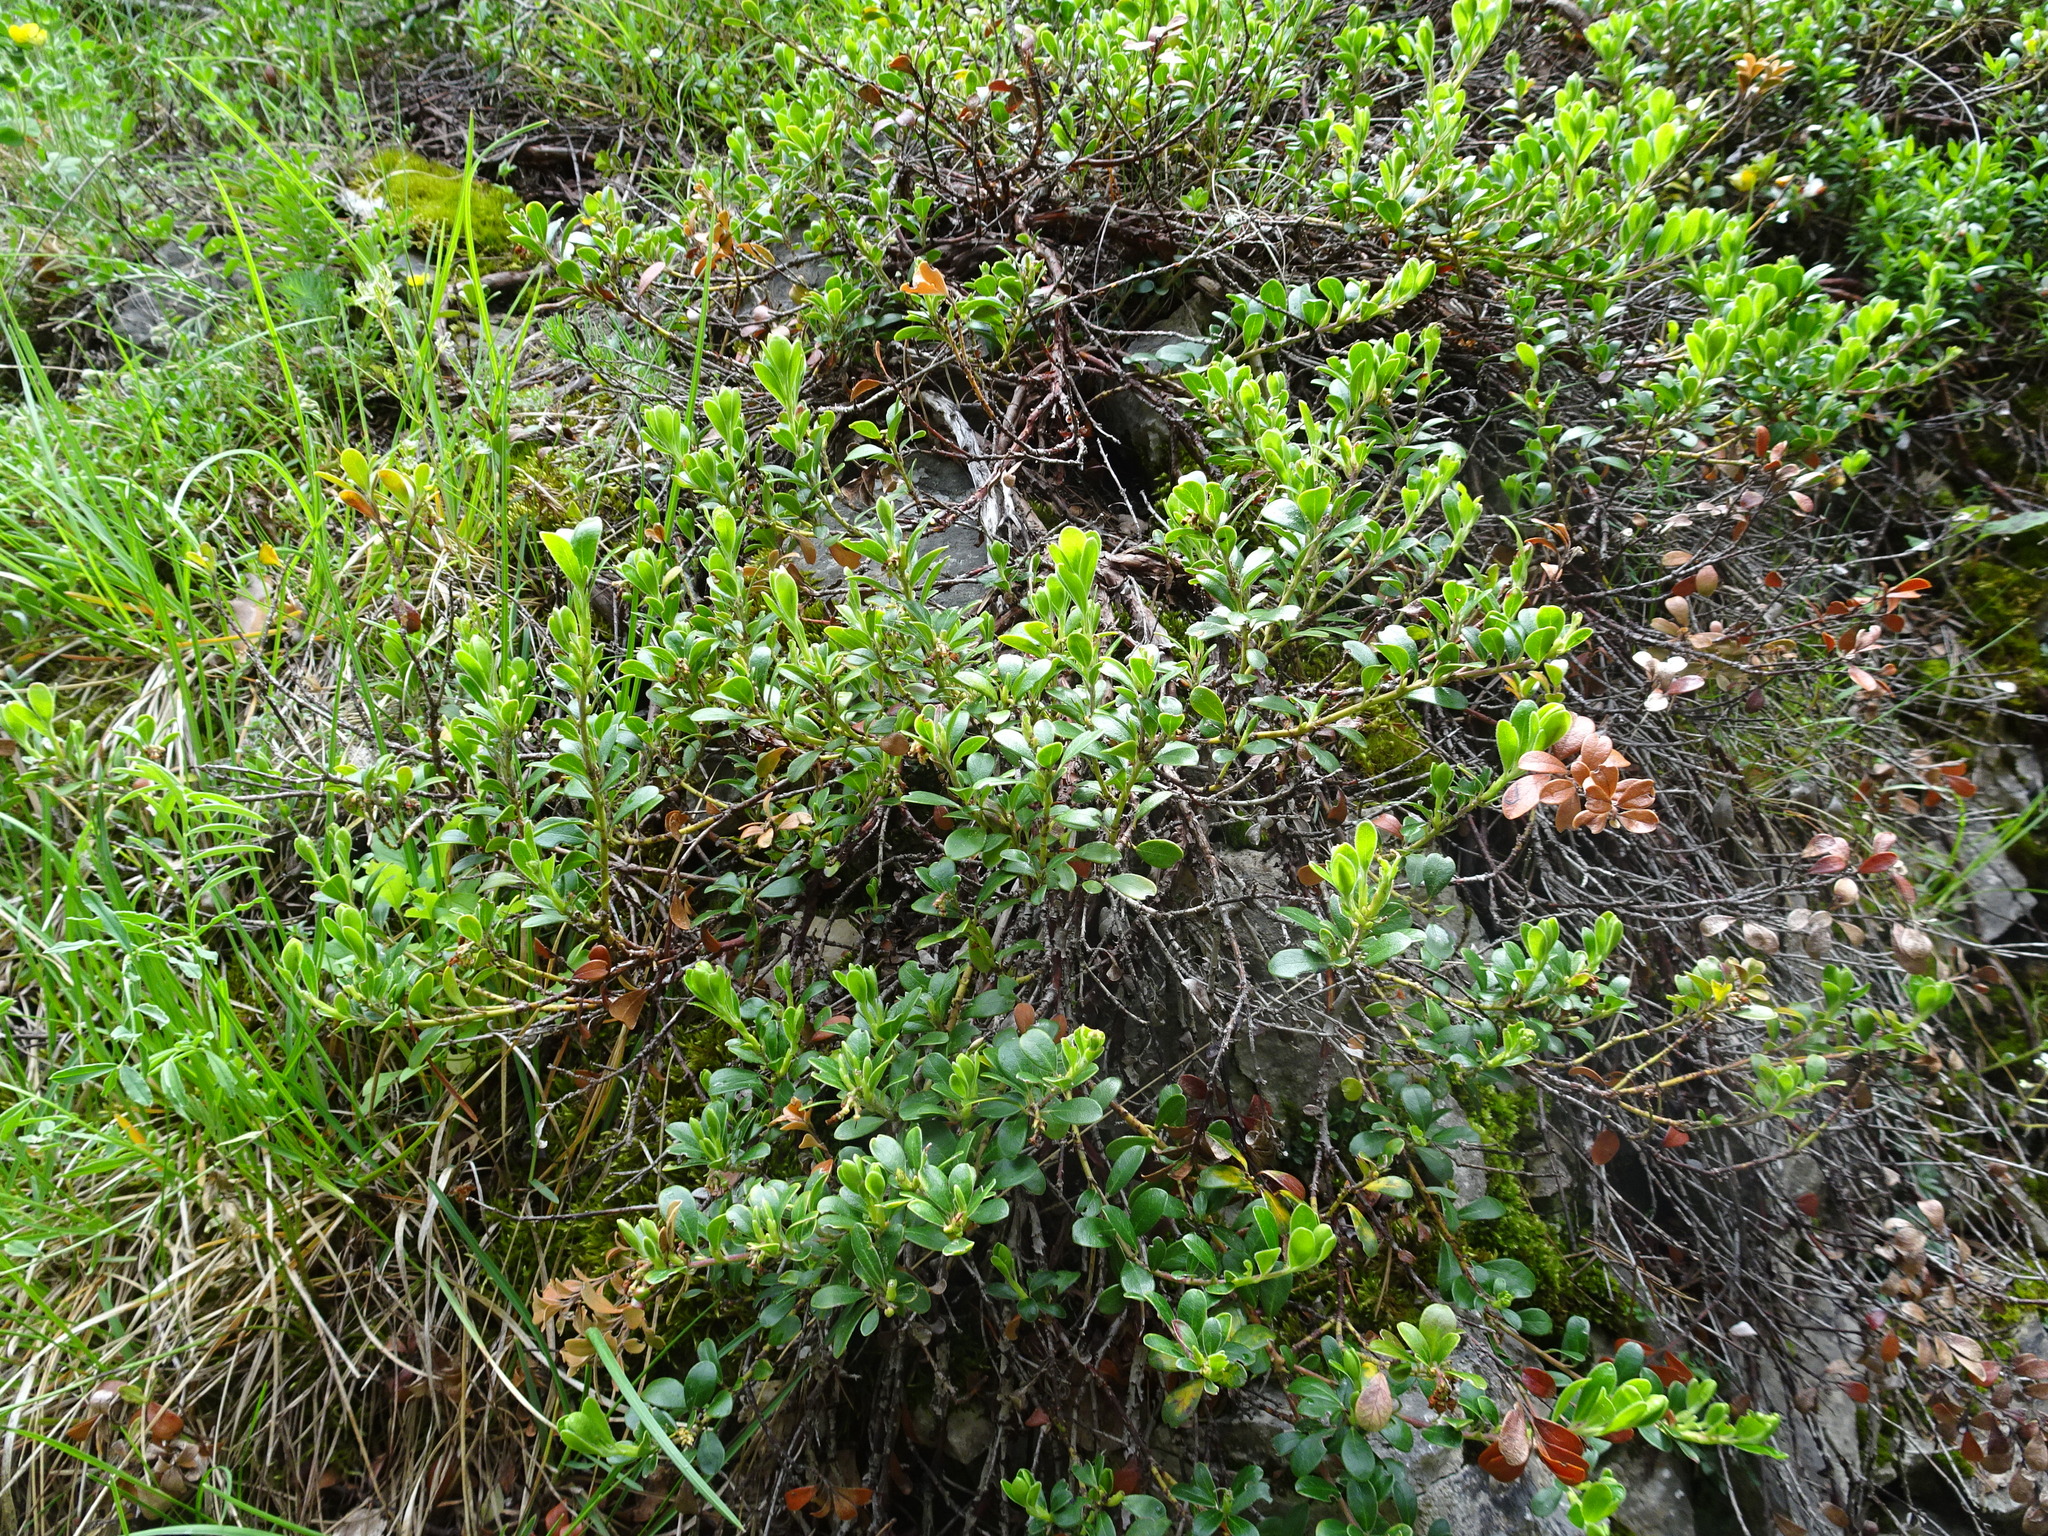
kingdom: Plantae
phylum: Tracheophyta
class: Magnoliopsida
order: Ericales
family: Ericaceae
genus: Arctostaphylos
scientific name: Arctostaphylos uva-ursi
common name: Bearberry
